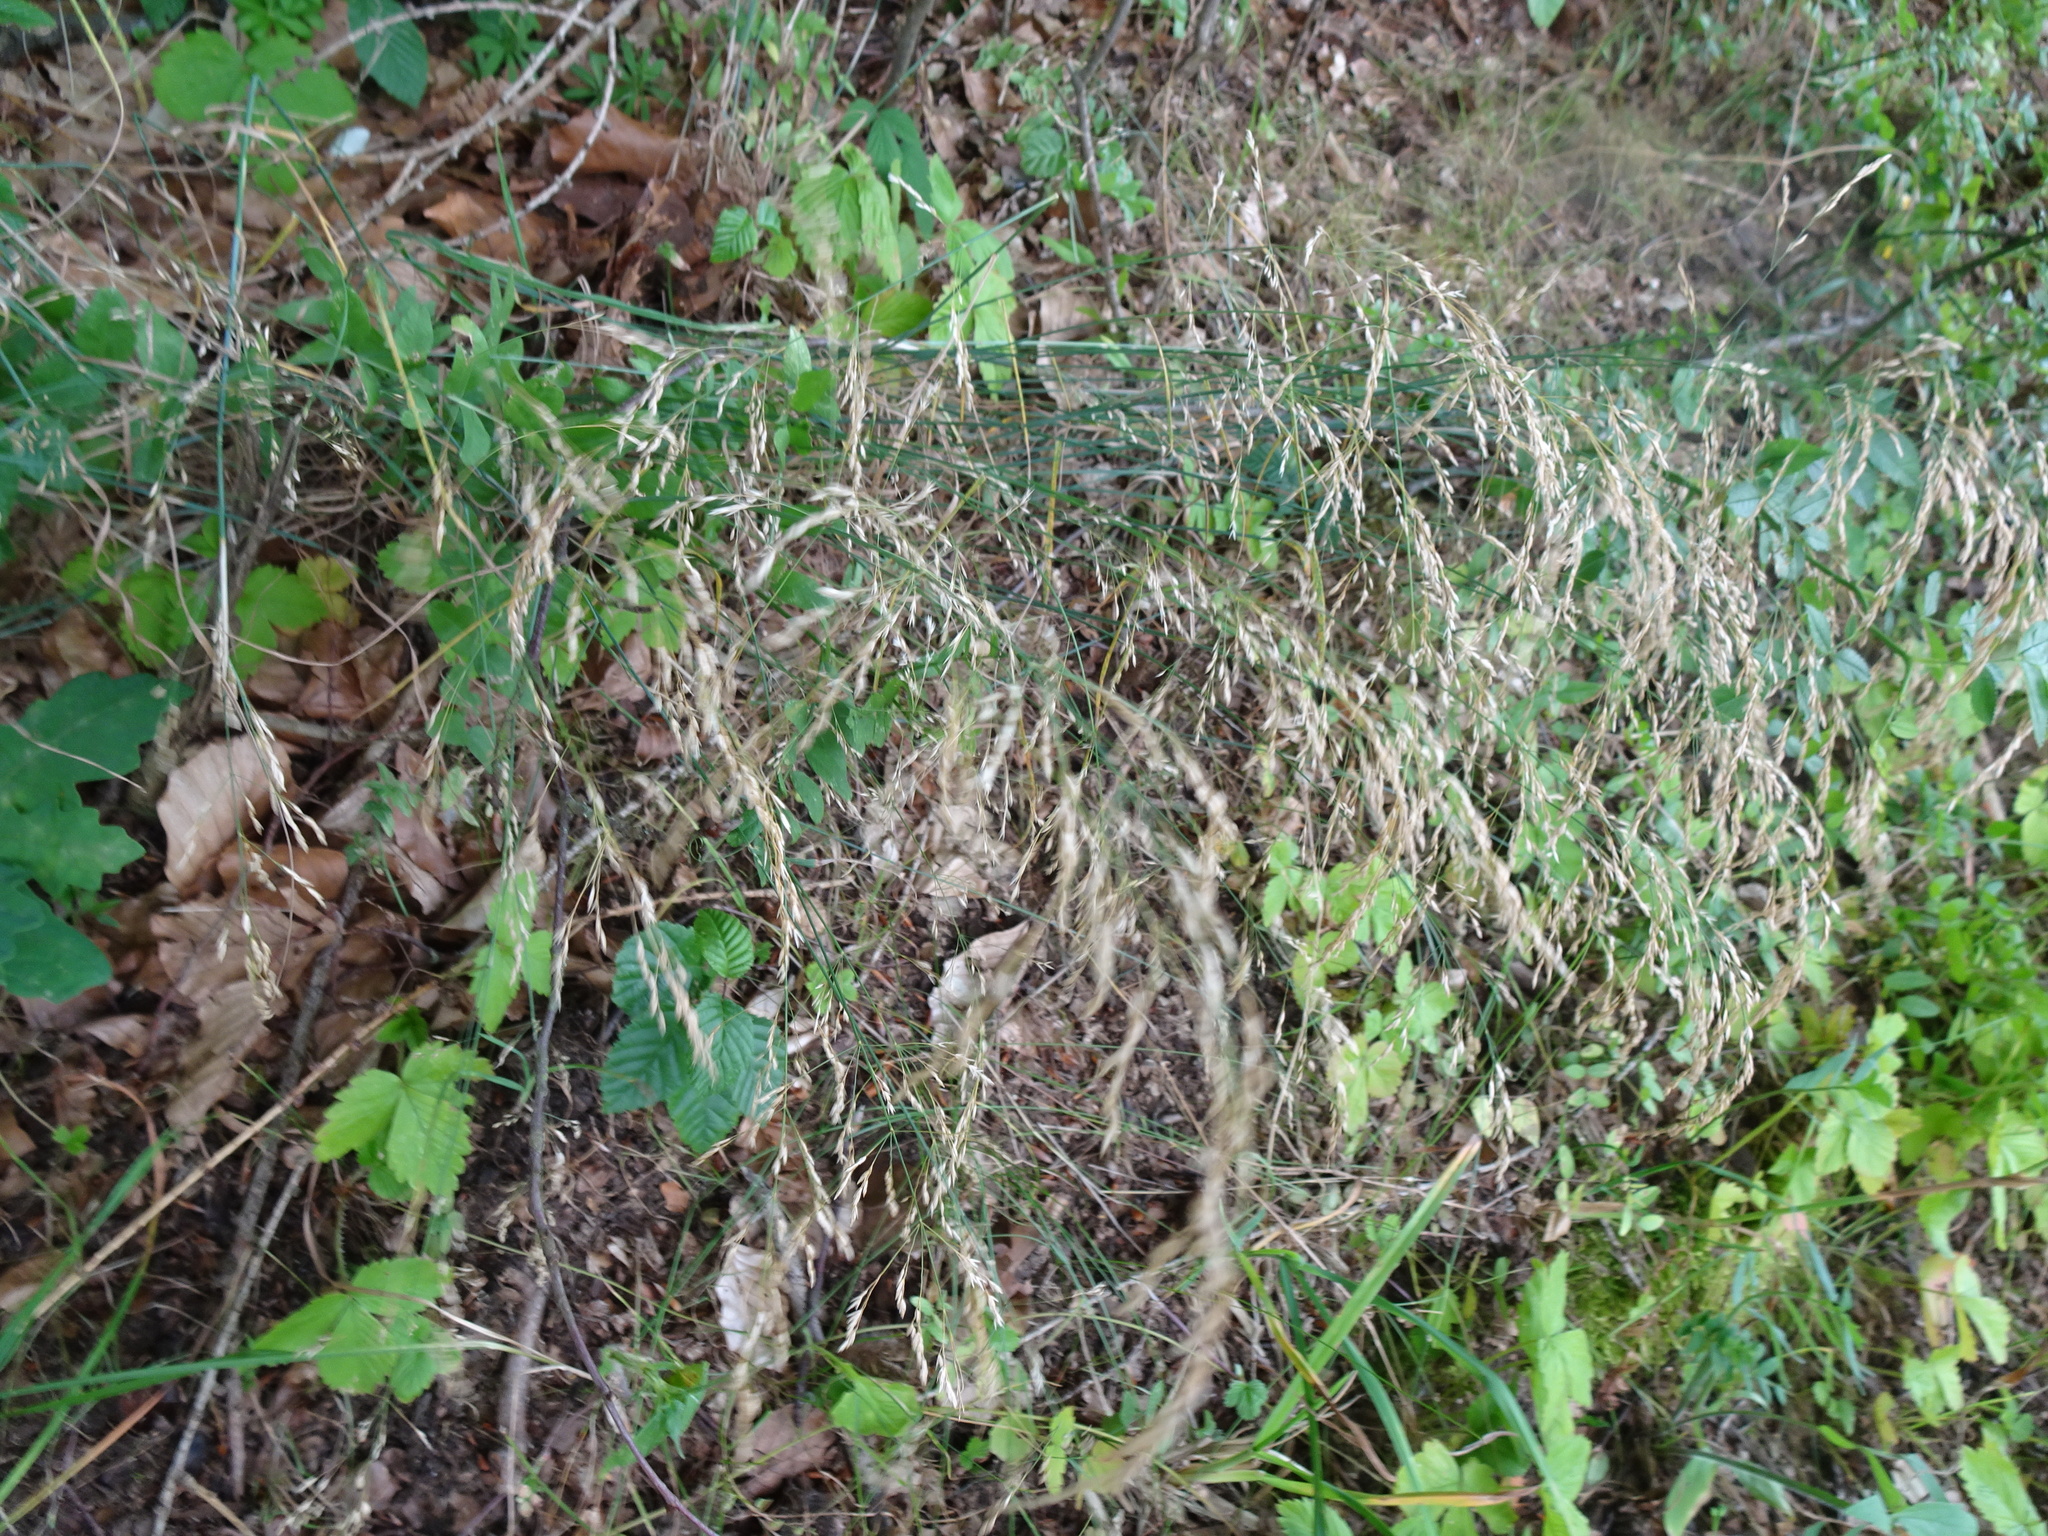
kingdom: Plantae
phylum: Tracheophyta
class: Liliopsida
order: Poales
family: Poaceae
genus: Poa
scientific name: Poa nemoralis
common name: Wood bluegrass
